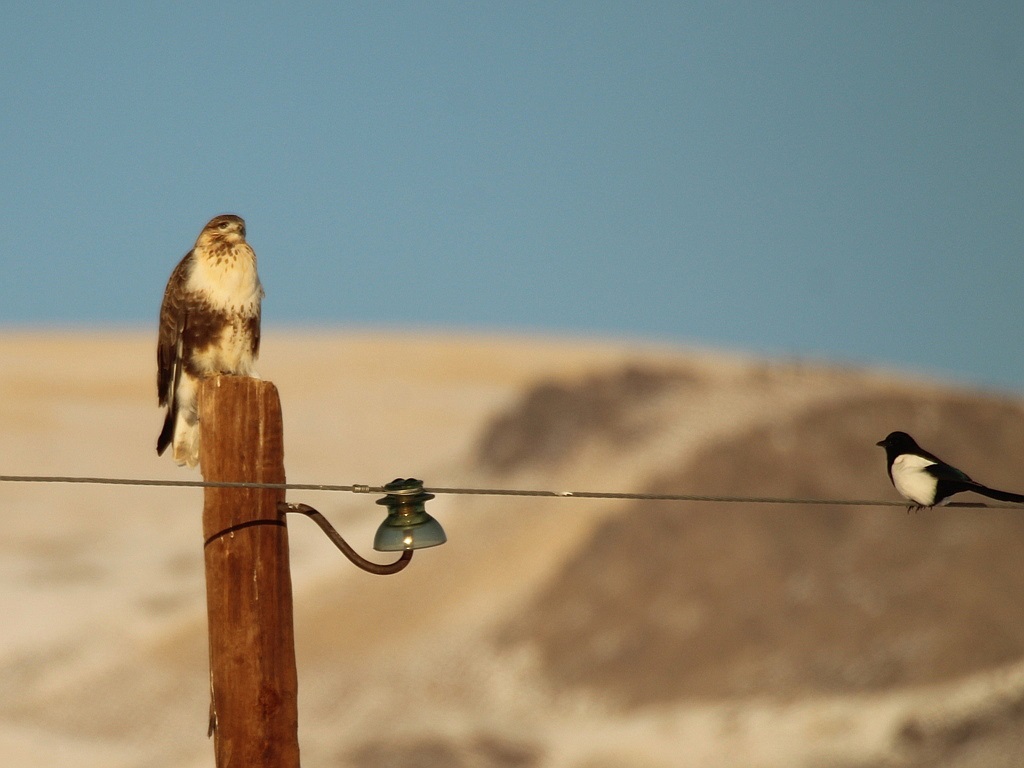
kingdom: Animalia
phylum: Chordata
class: Aves
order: Accipitriformes
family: Accipitridae
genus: Buteo
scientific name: Buteo hemilasius
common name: Upland buzzard
